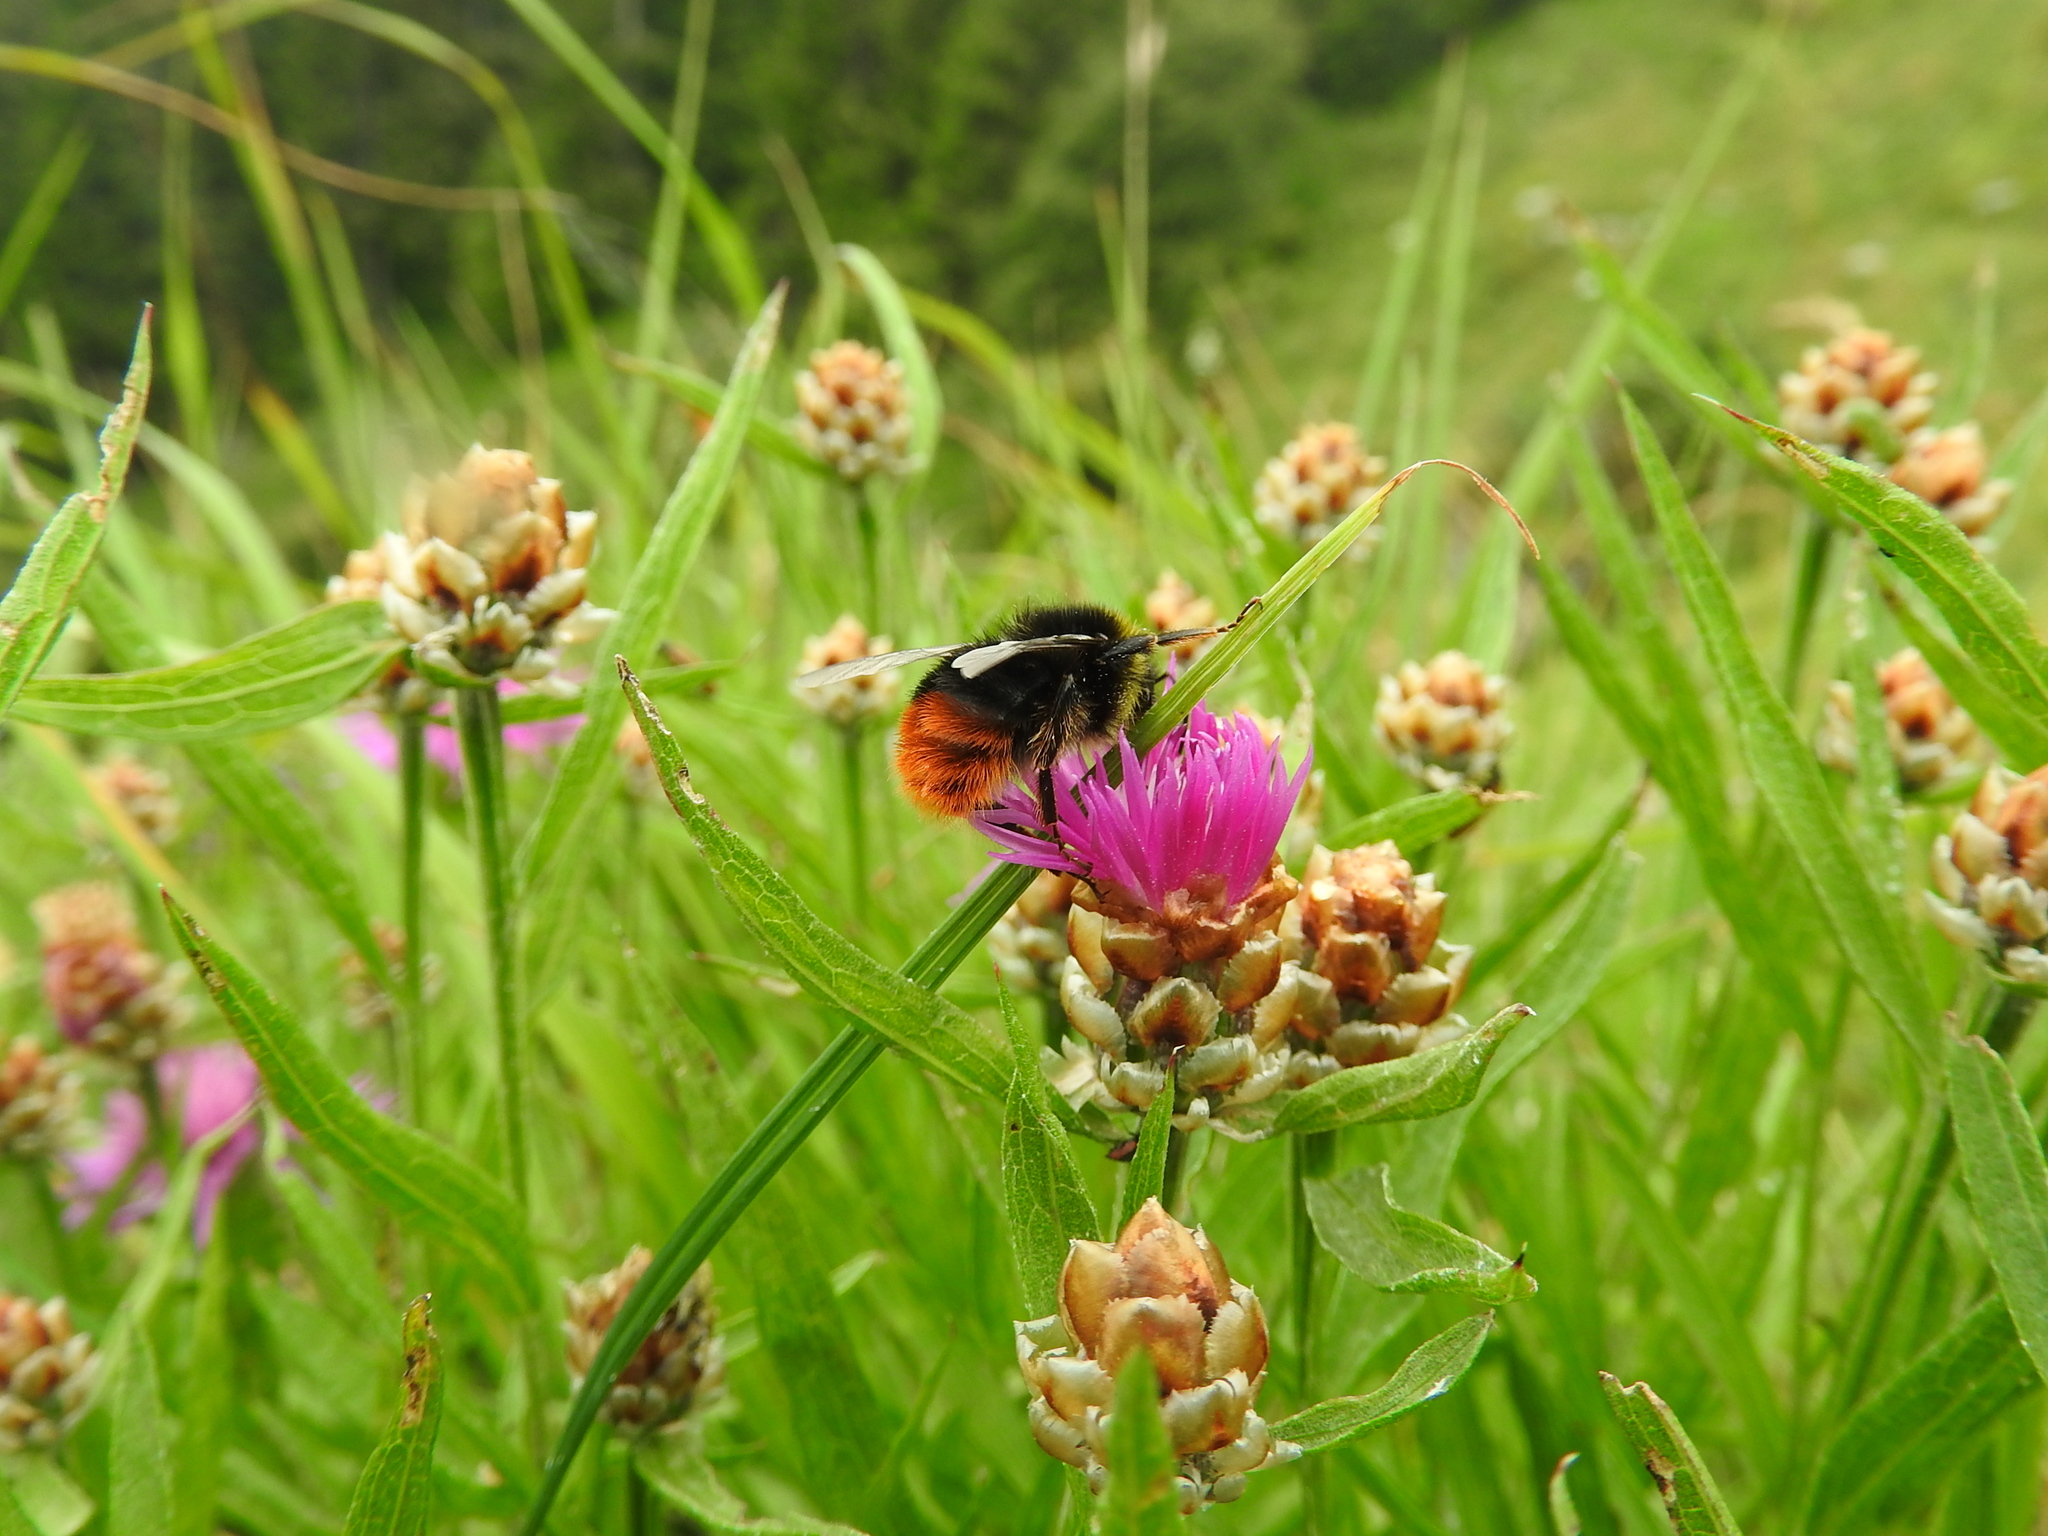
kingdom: Animalia
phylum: Arthropoda
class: Insecta
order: Hymenoptera
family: Apidae
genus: Bombus
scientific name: Bombus lapidarius
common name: Large red-tailed humble-bee
